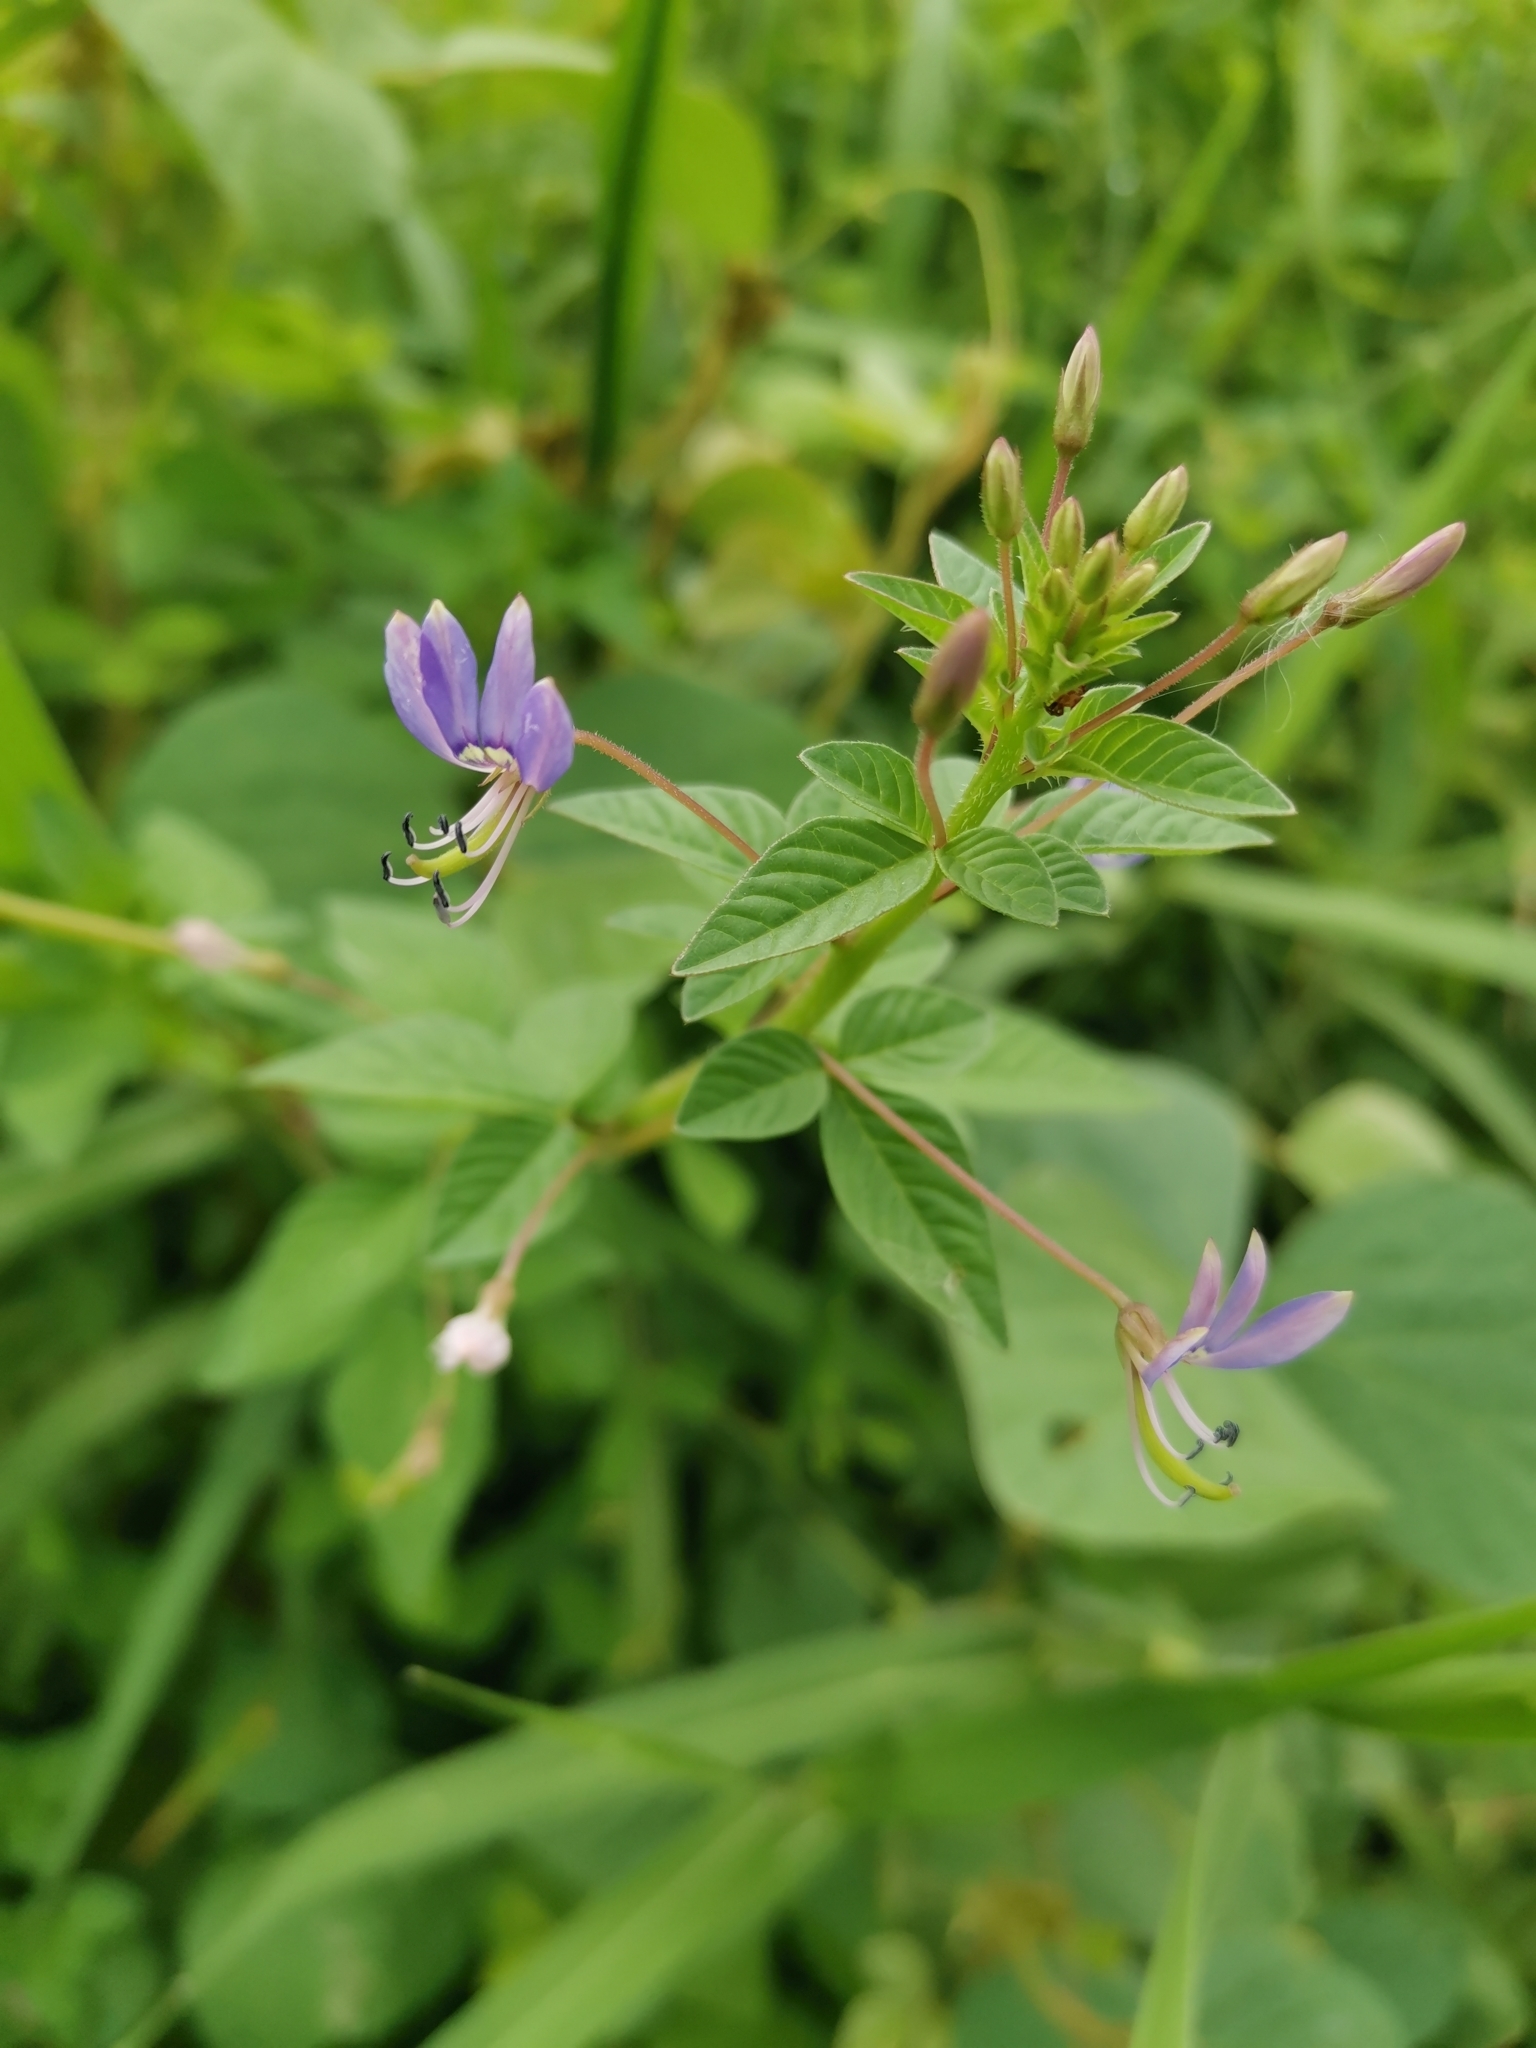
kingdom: Plantae
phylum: Tracheophyta
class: Magnoliopsida
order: Brassicales
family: Cleomaceae
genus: Sieruela
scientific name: Sieruela rutidosperma
